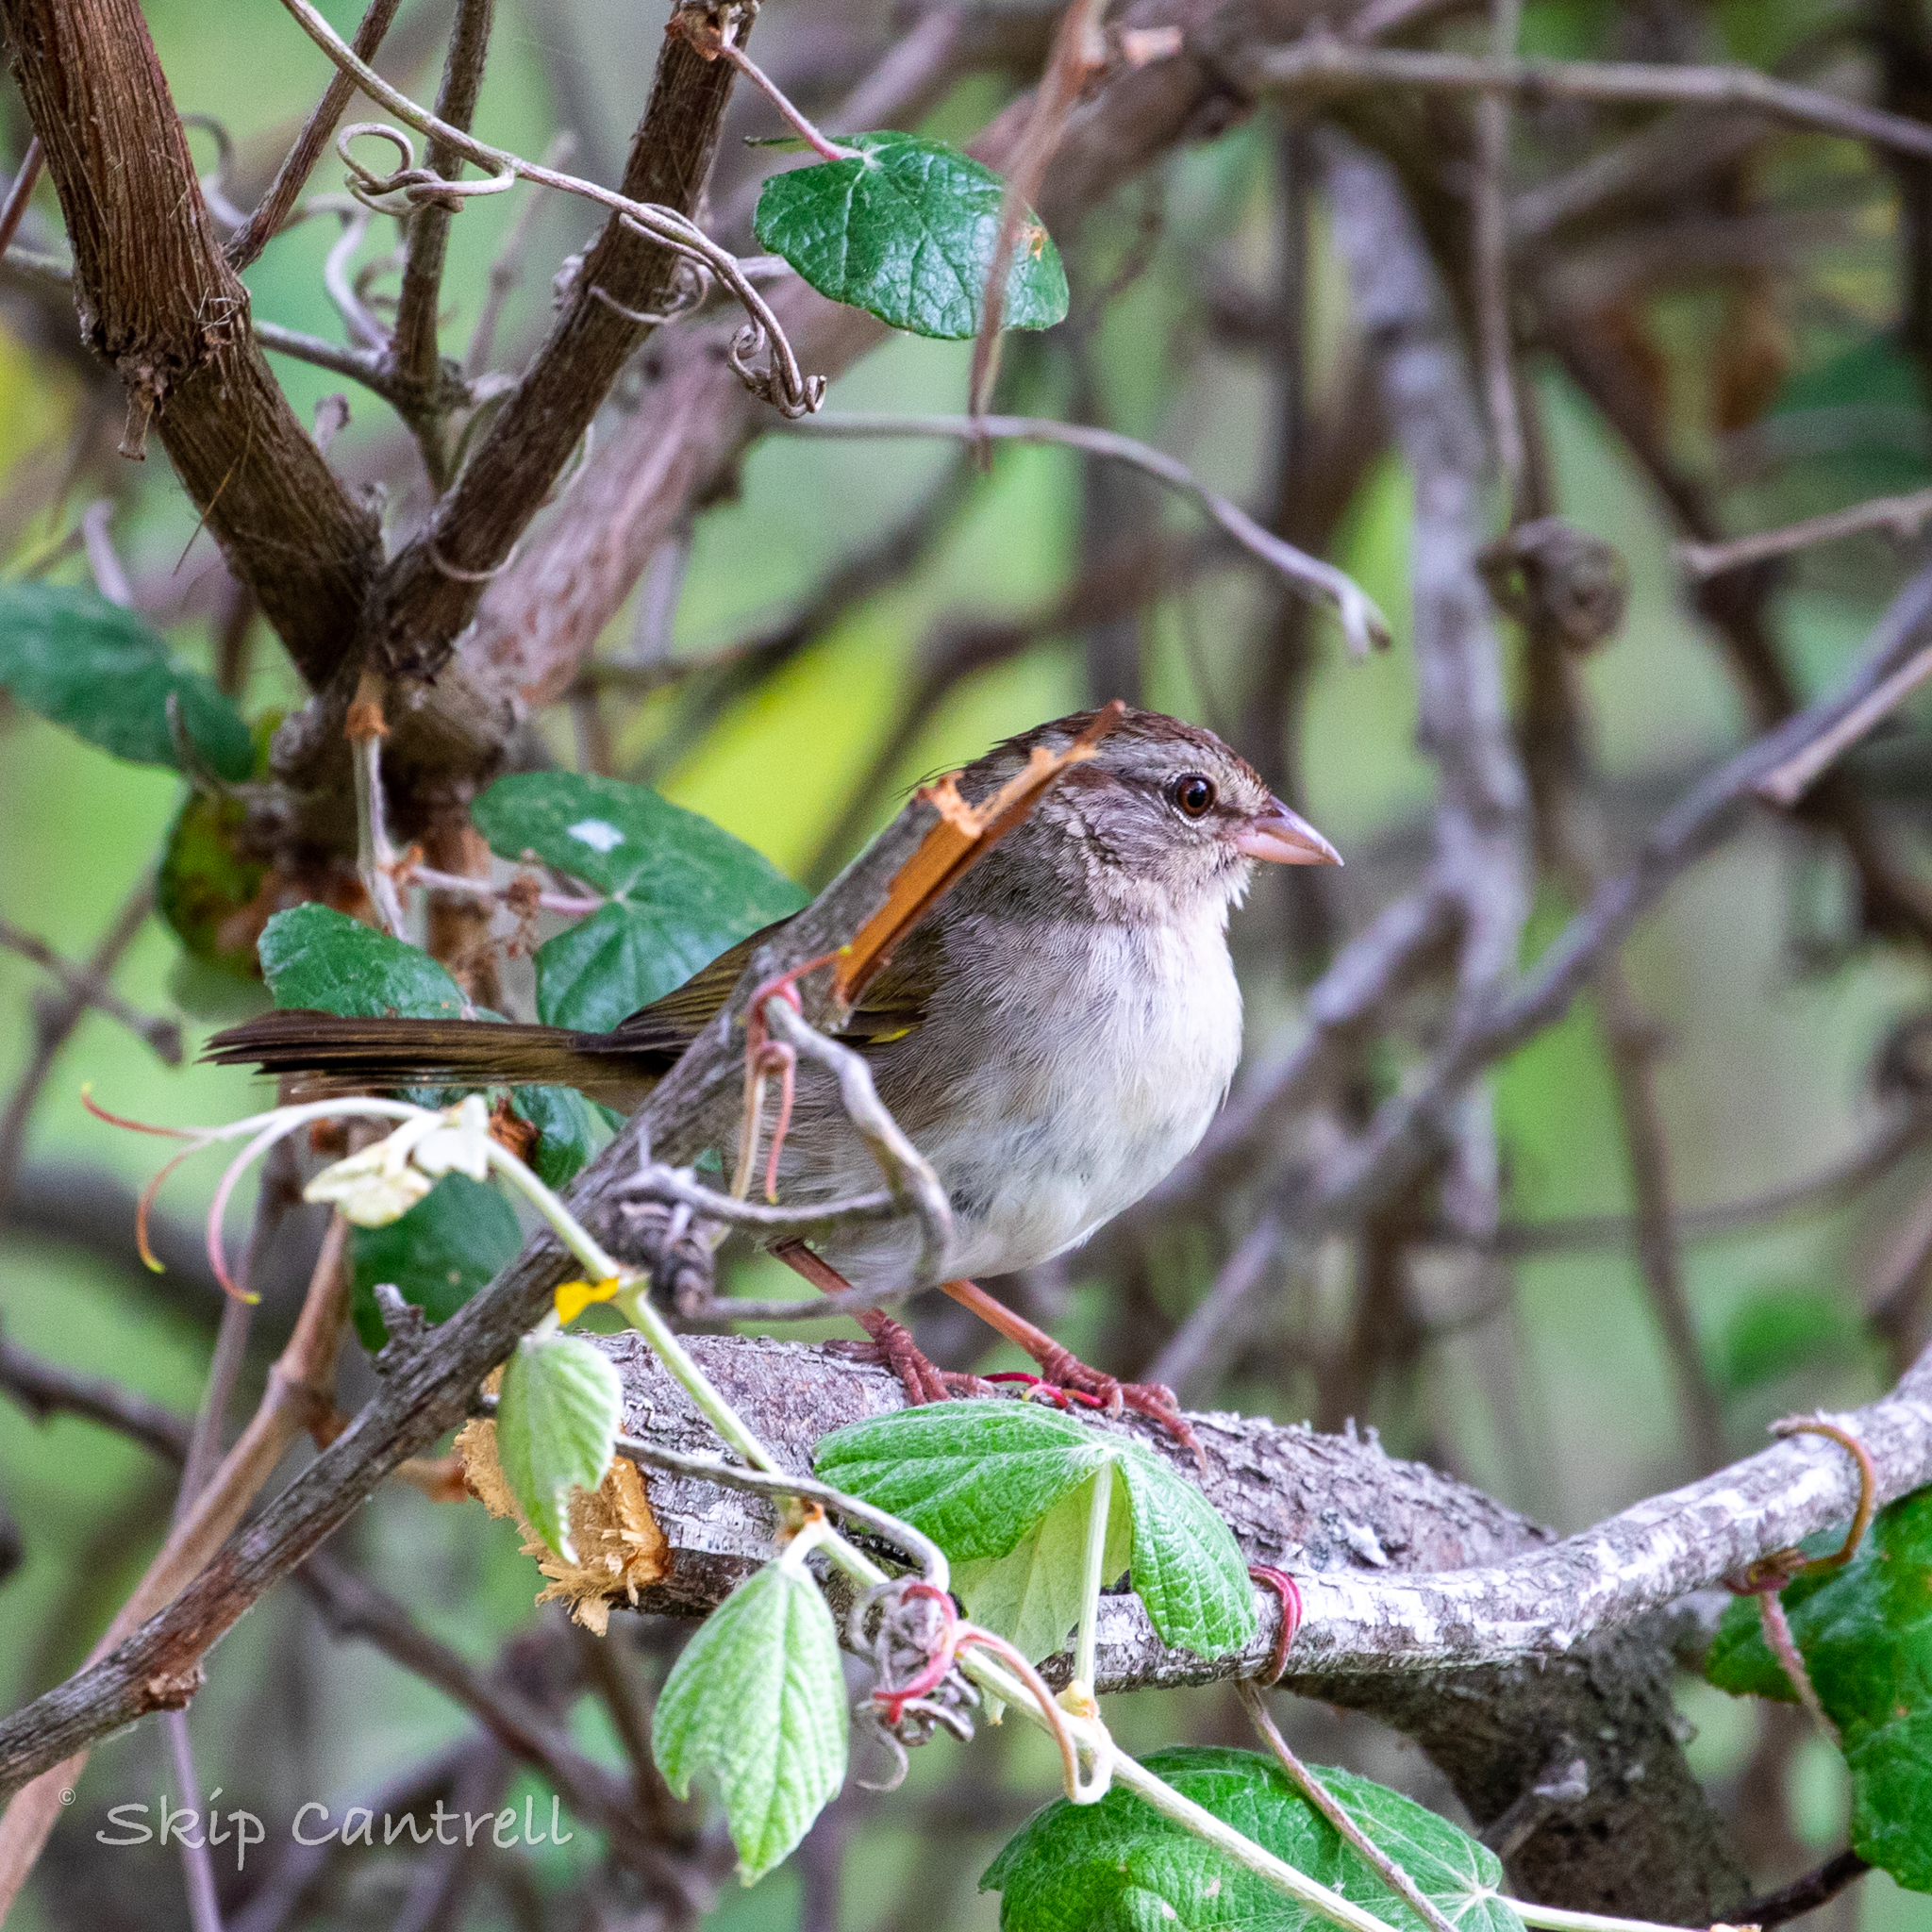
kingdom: Animalia
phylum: Chordata
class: Aves
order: Passeriformes
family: Passerellidae
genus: Arremonops
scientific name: Arremonops rufivirgatus
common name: Olive sparrow
